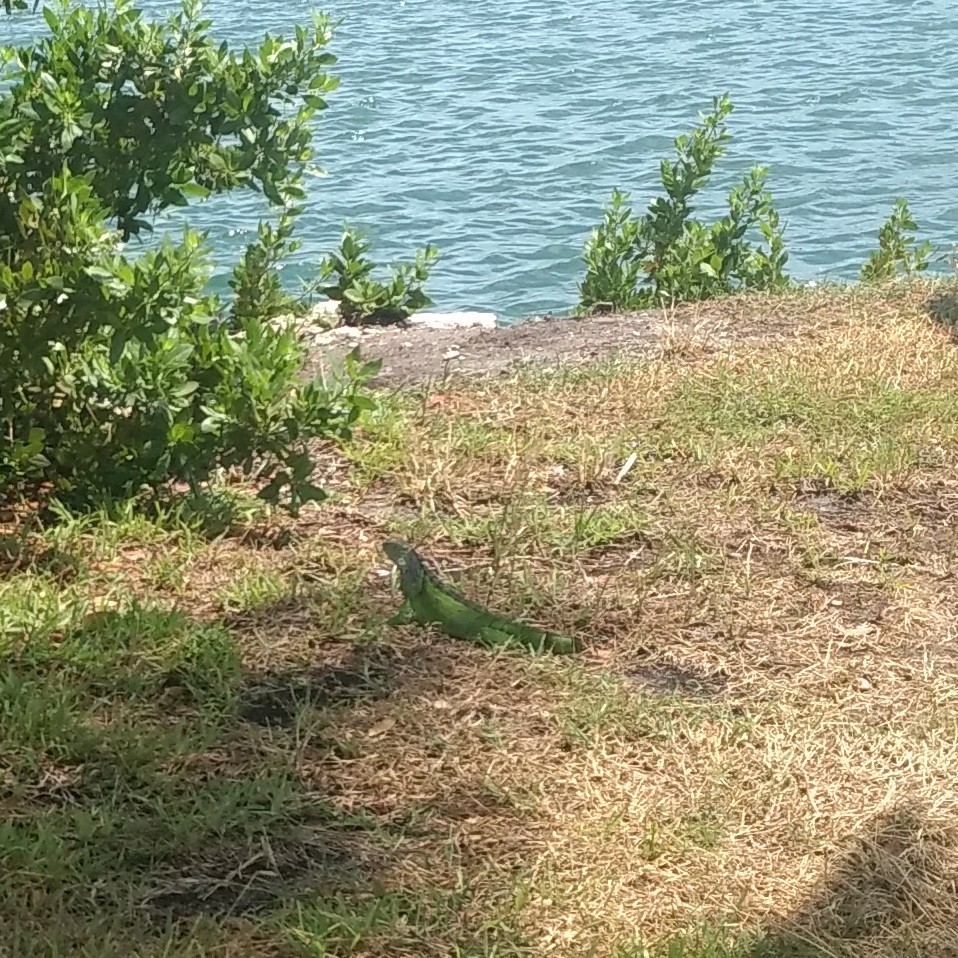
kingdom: Animalia
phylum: Chordata
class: Squamata
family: Iguanidae
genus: Iguana
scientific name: Iguana iguana
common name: Green iguana
